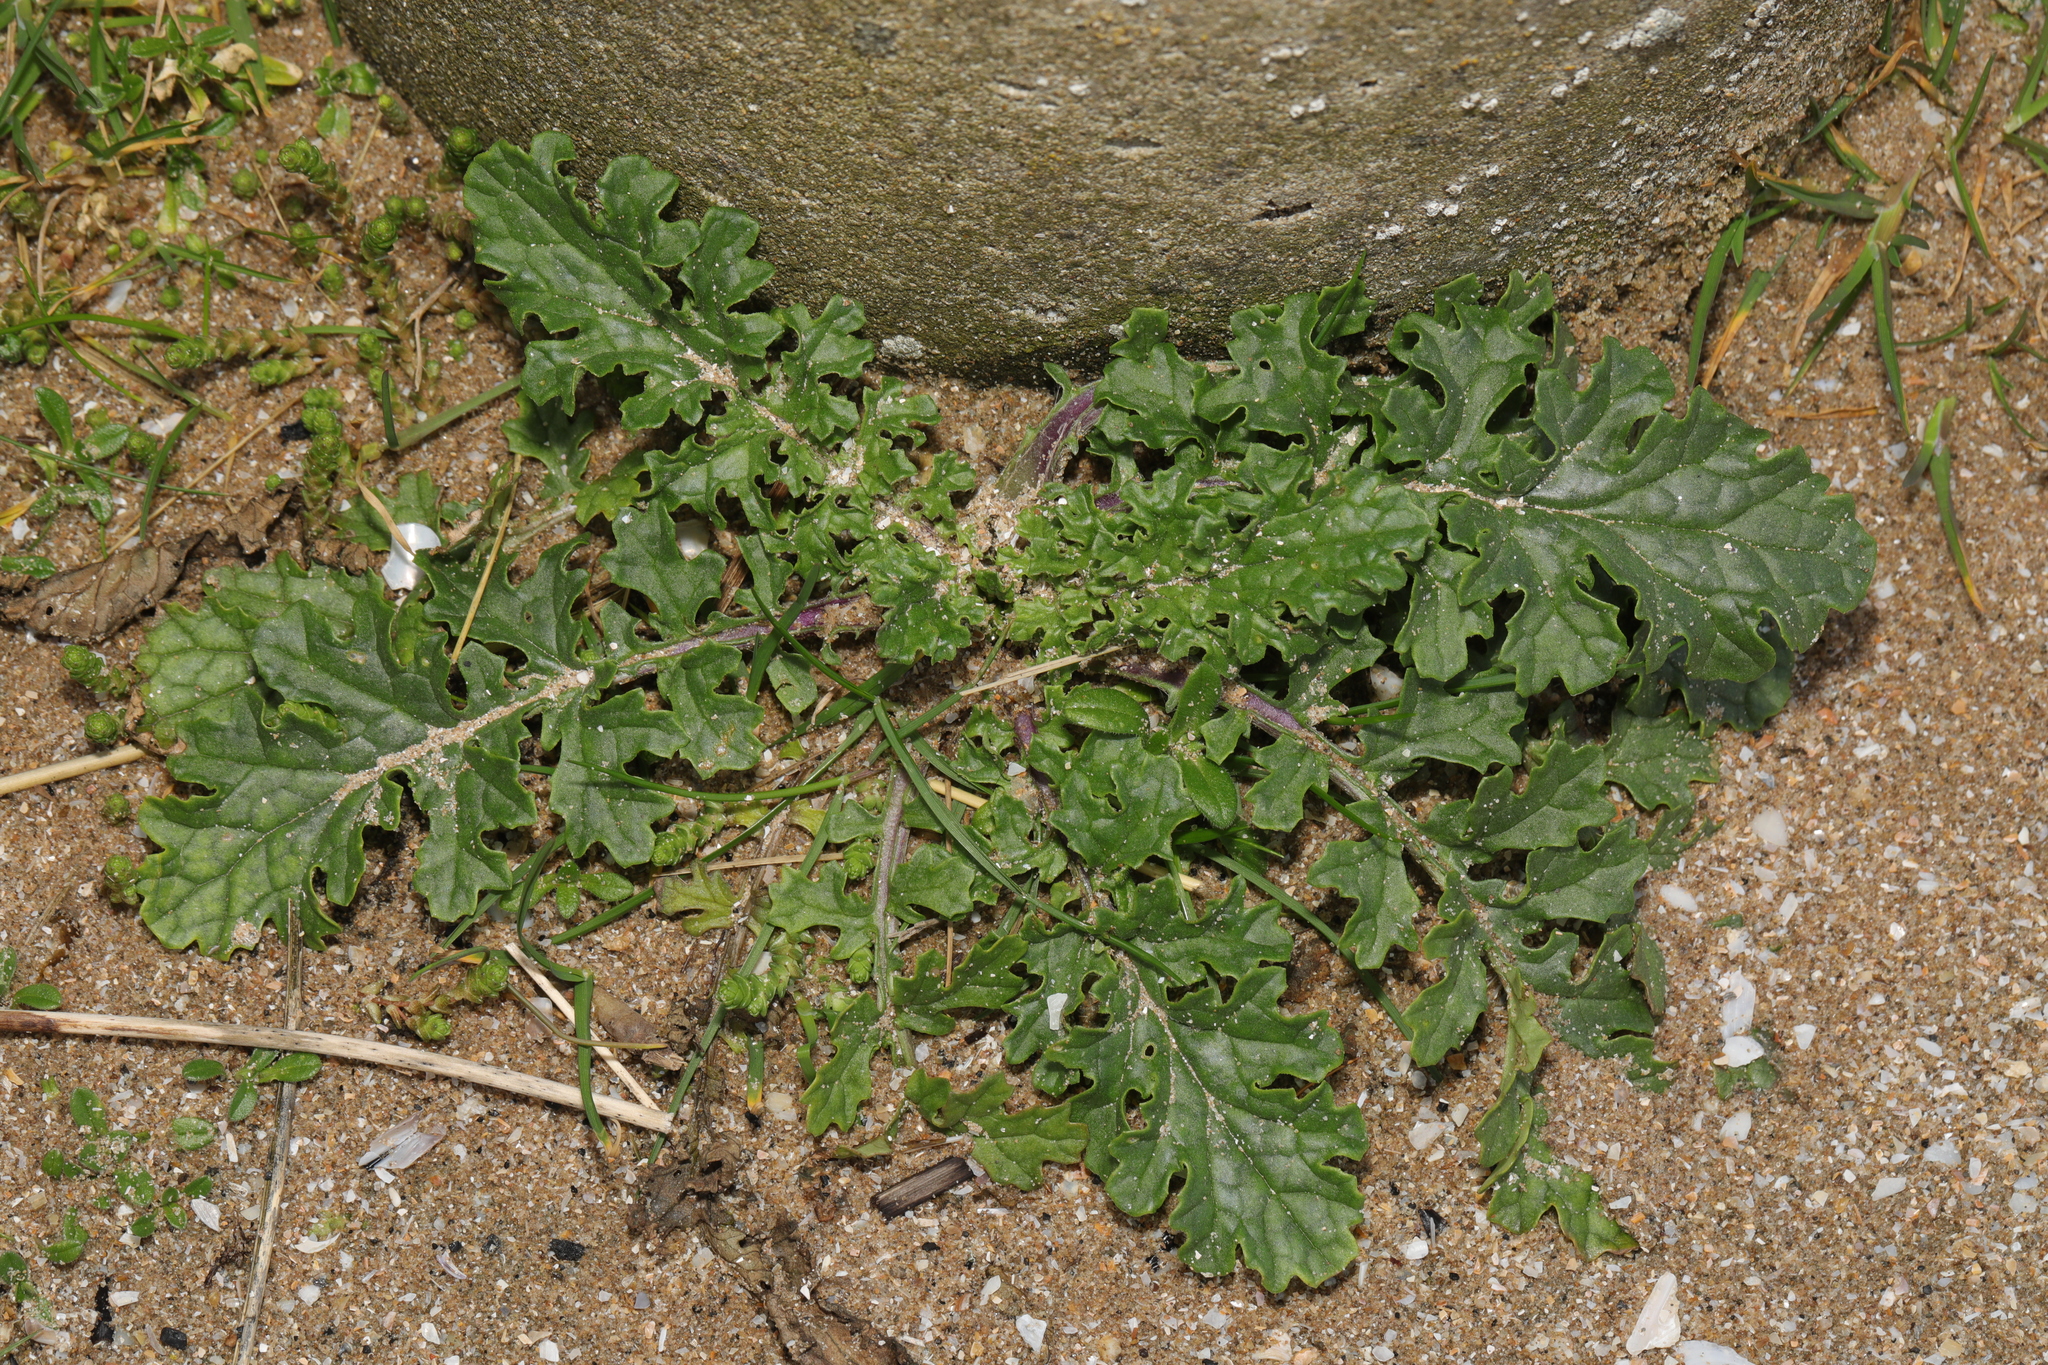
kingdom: Plantae
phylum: Tracheophyta
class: Magnoliopsida
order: Asterales
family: Asteraceae
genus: Jacobaea
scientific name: Jacobaea vulgaris
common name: Stinking willie
